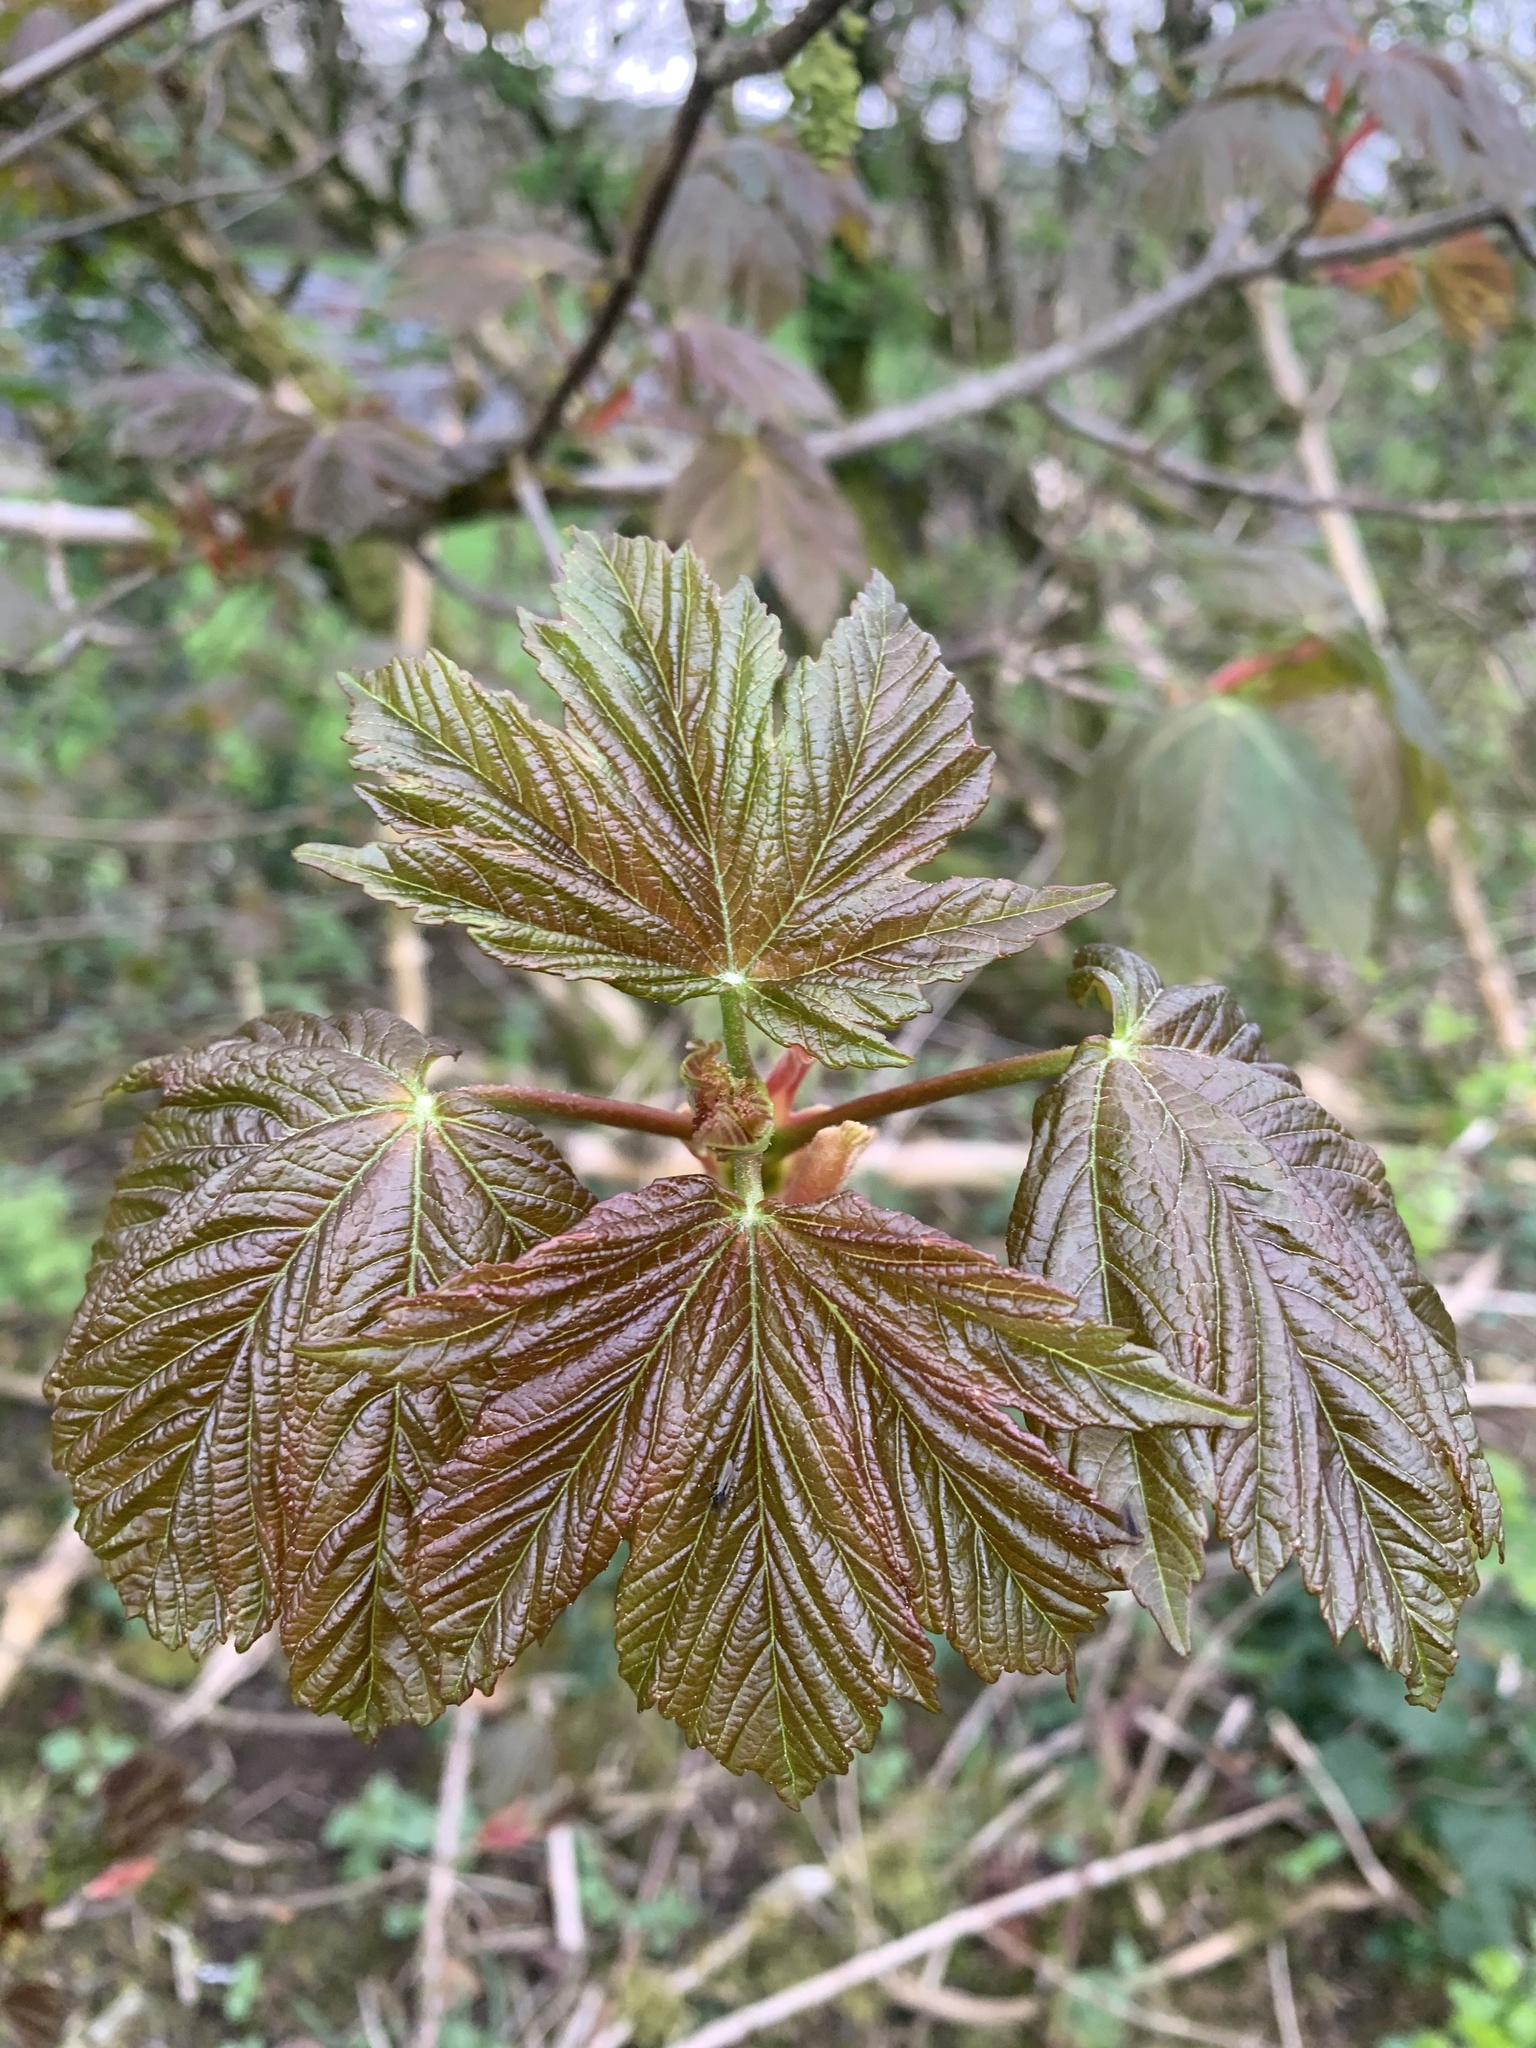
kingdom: Plantae
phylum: Tracheophyta
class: Magnoliopsida
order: Sapindales
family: Sapindaceae
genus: Acer
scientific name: Acer pseudoplatanus
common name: Sycamore
